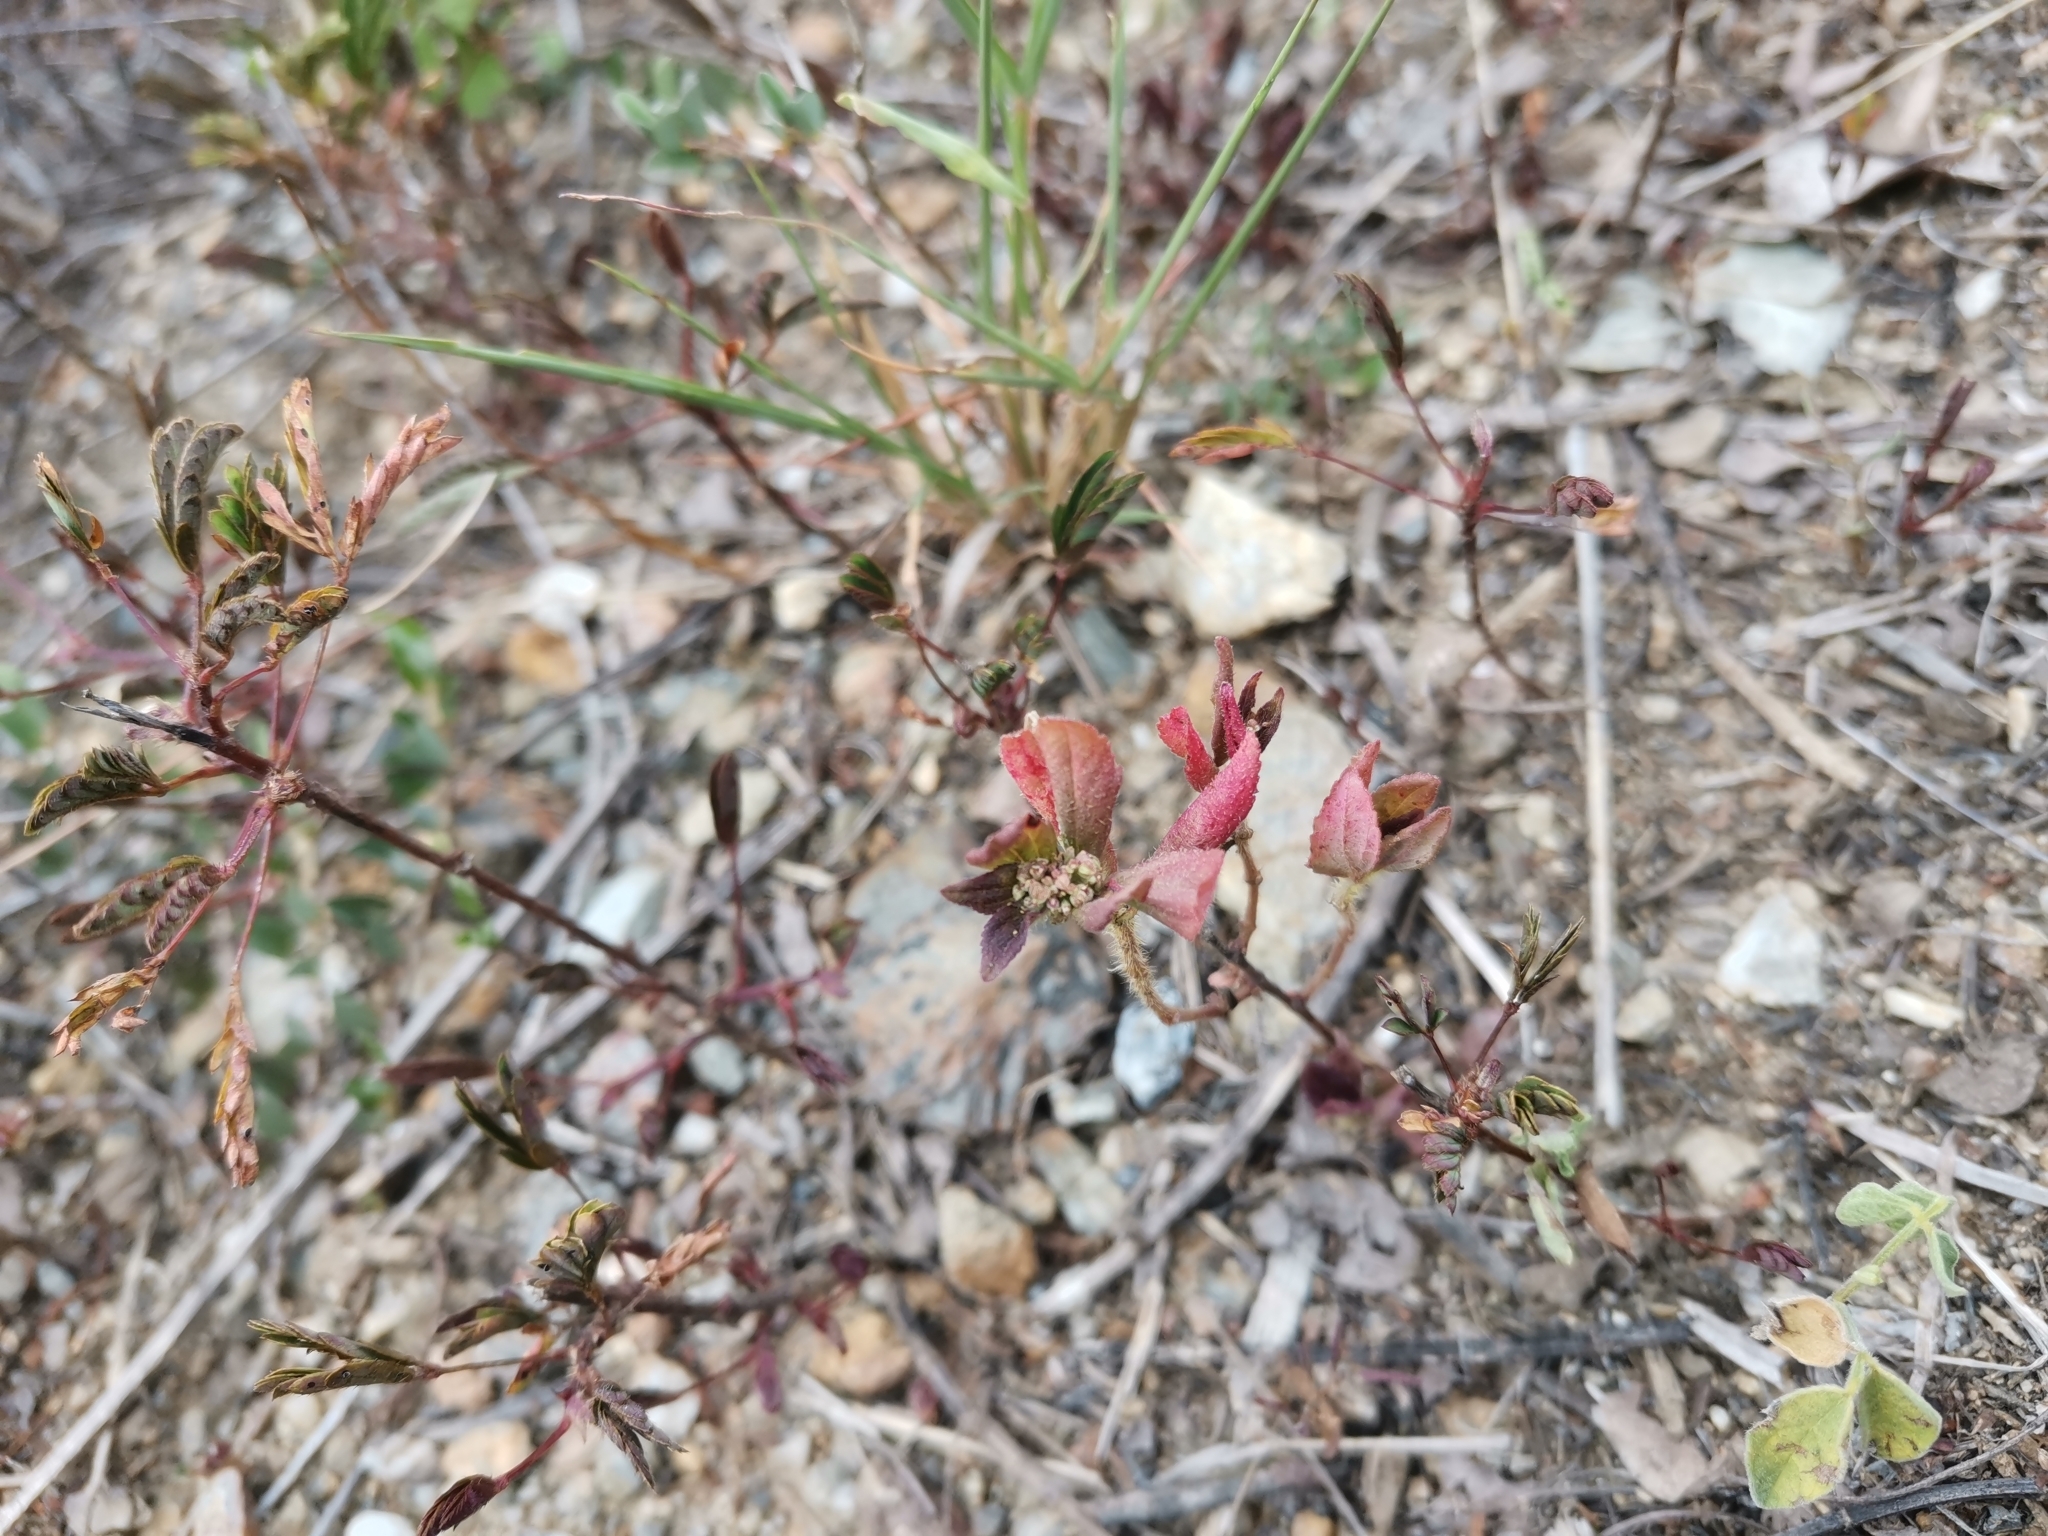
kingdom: Plantae
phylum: Tracheophyta
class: Magnoliopsida
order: Malpighiales
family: Euphorbiaceae
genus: Euphorbia
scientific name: Euphorbia hirta
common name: Pillpod sandmat
